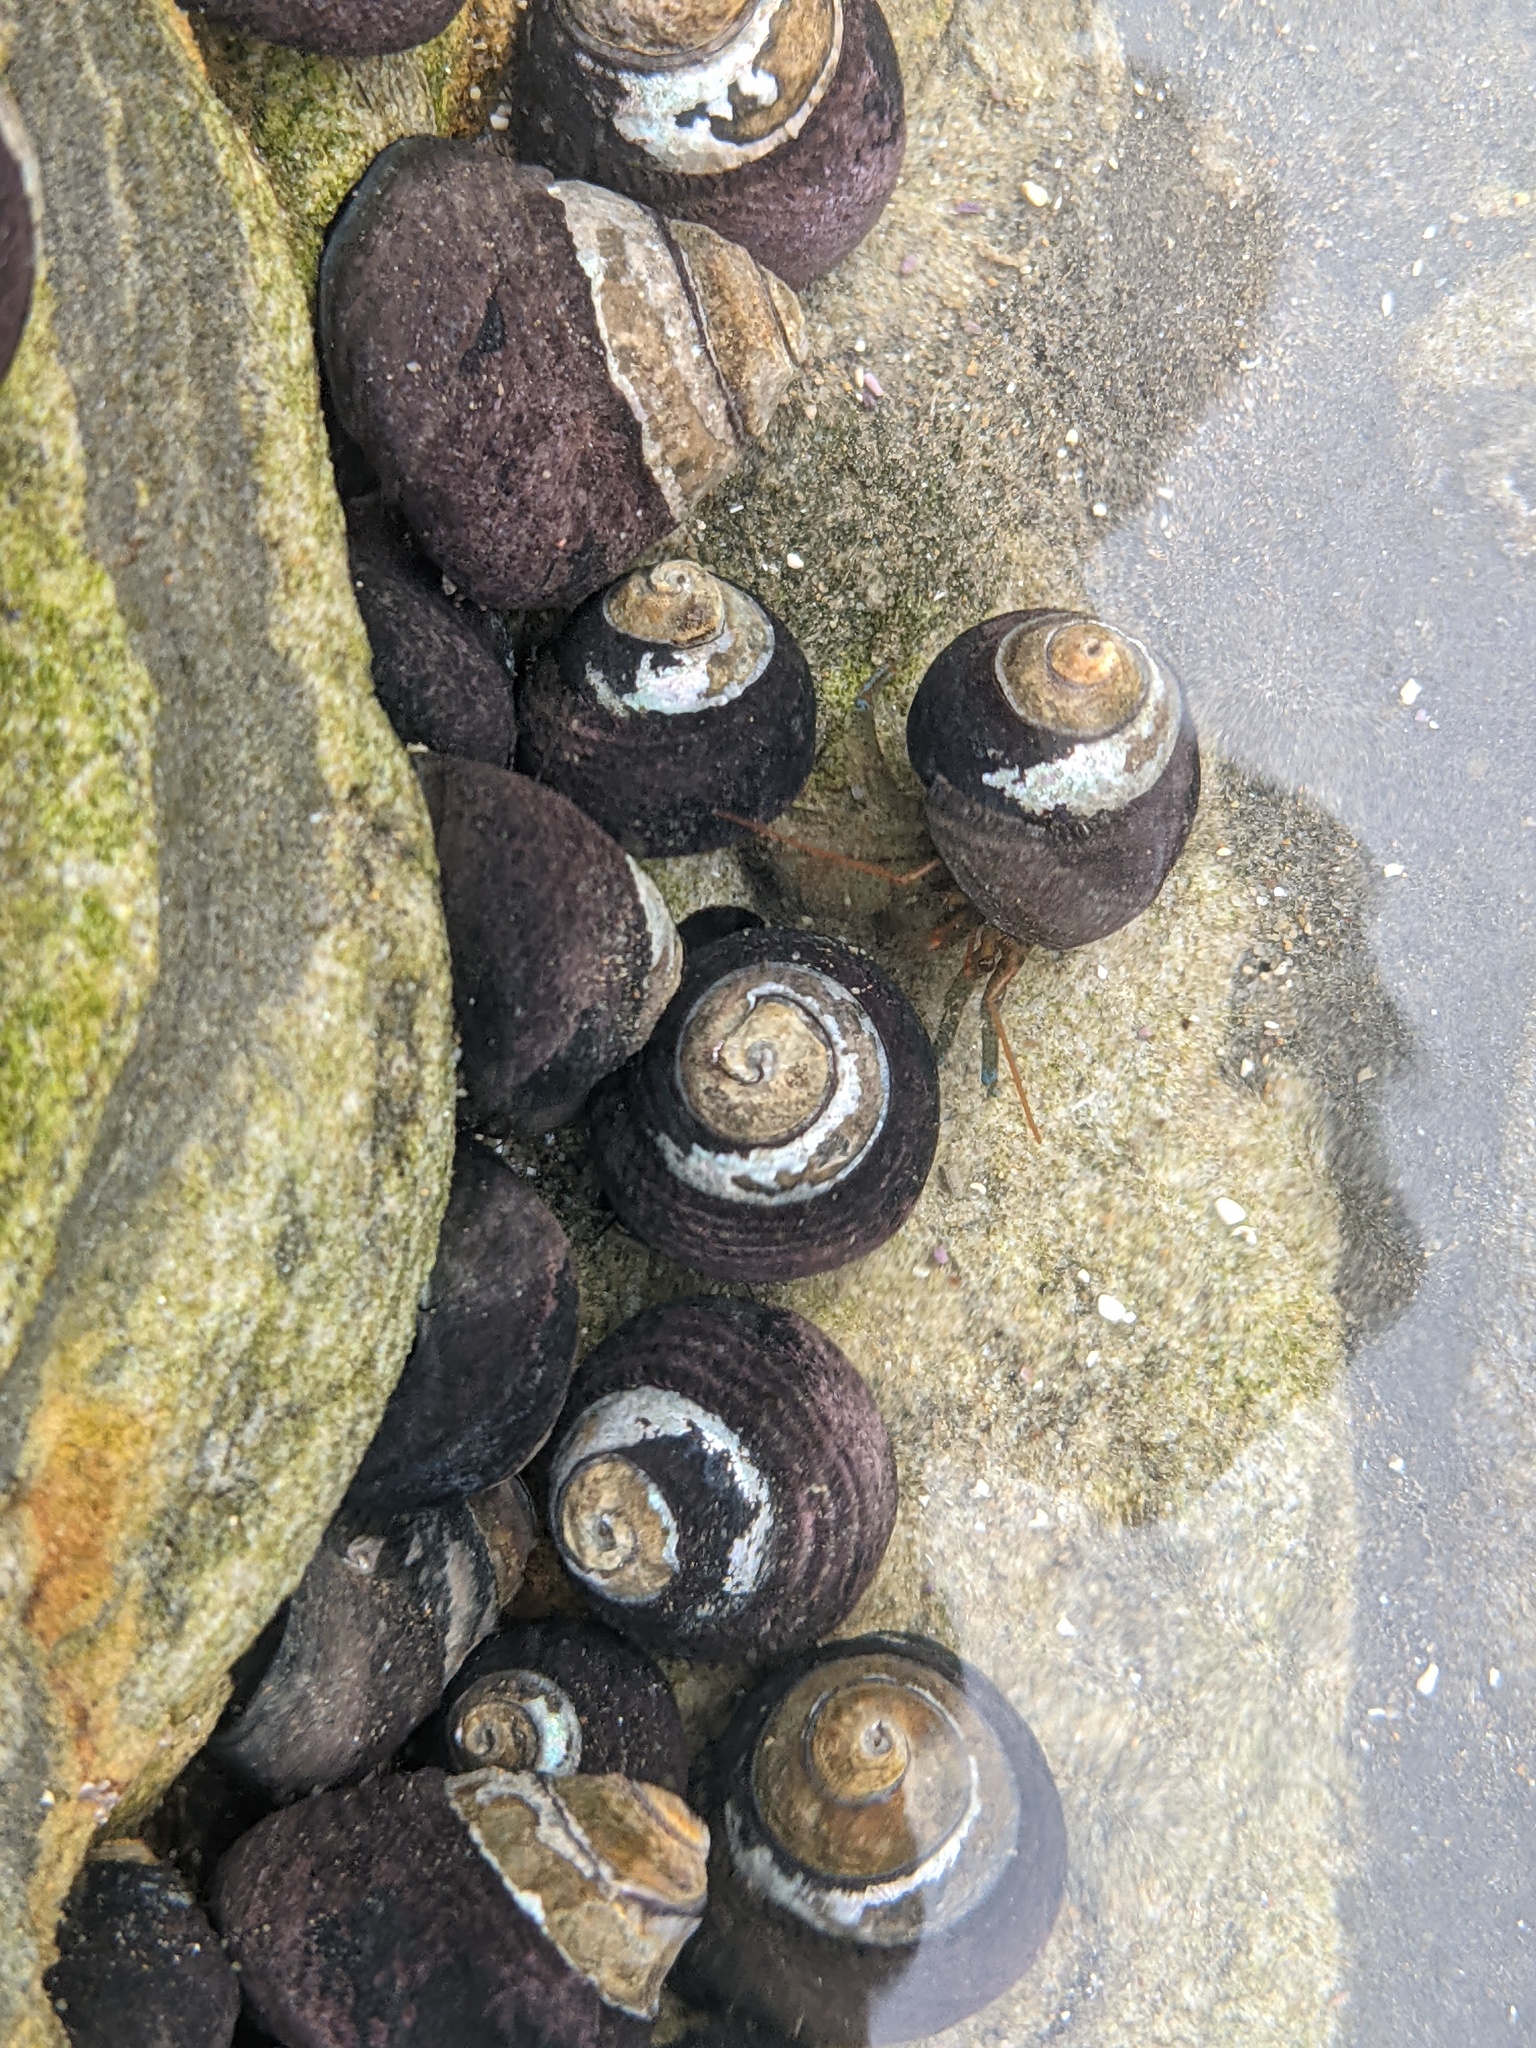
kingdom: Animalia
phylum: Mollusca
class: Gastropoda
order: Trochida
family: Tegulidae
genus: Tegula
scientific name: Tegula funebralis
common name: Black tegula
